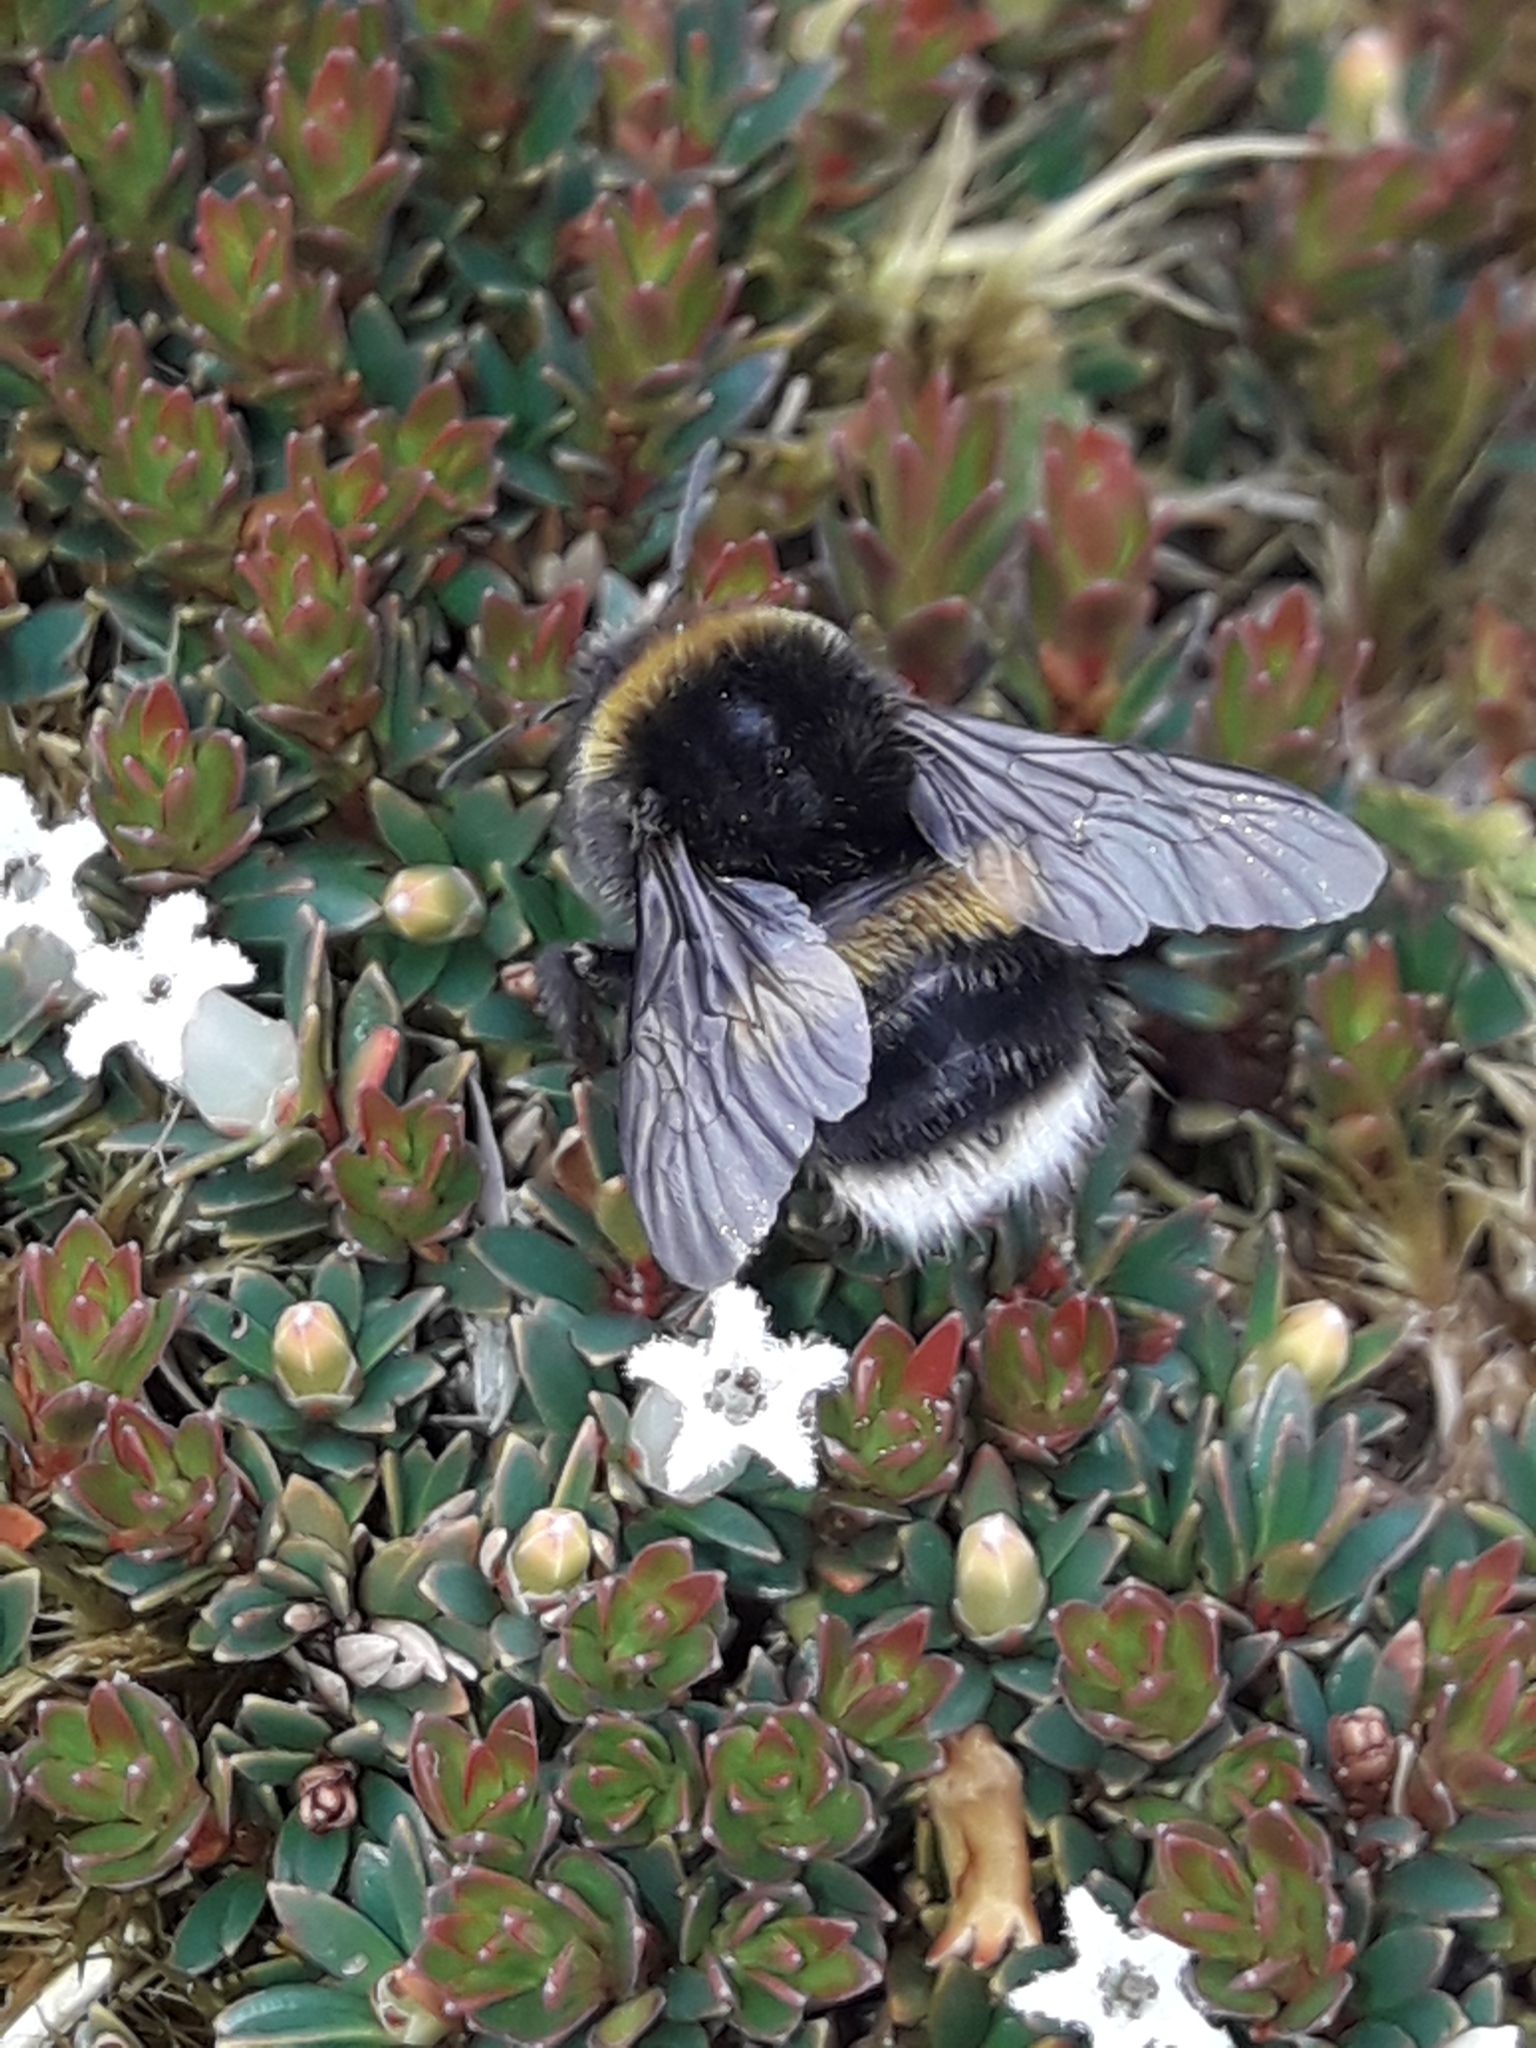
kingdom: Animalia
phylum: Arthropoda
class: Insecta
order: Hymenoptera
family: Apidae
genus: Bombus
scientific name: Bombus terrestris
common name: Buff-tailed bumblebee
